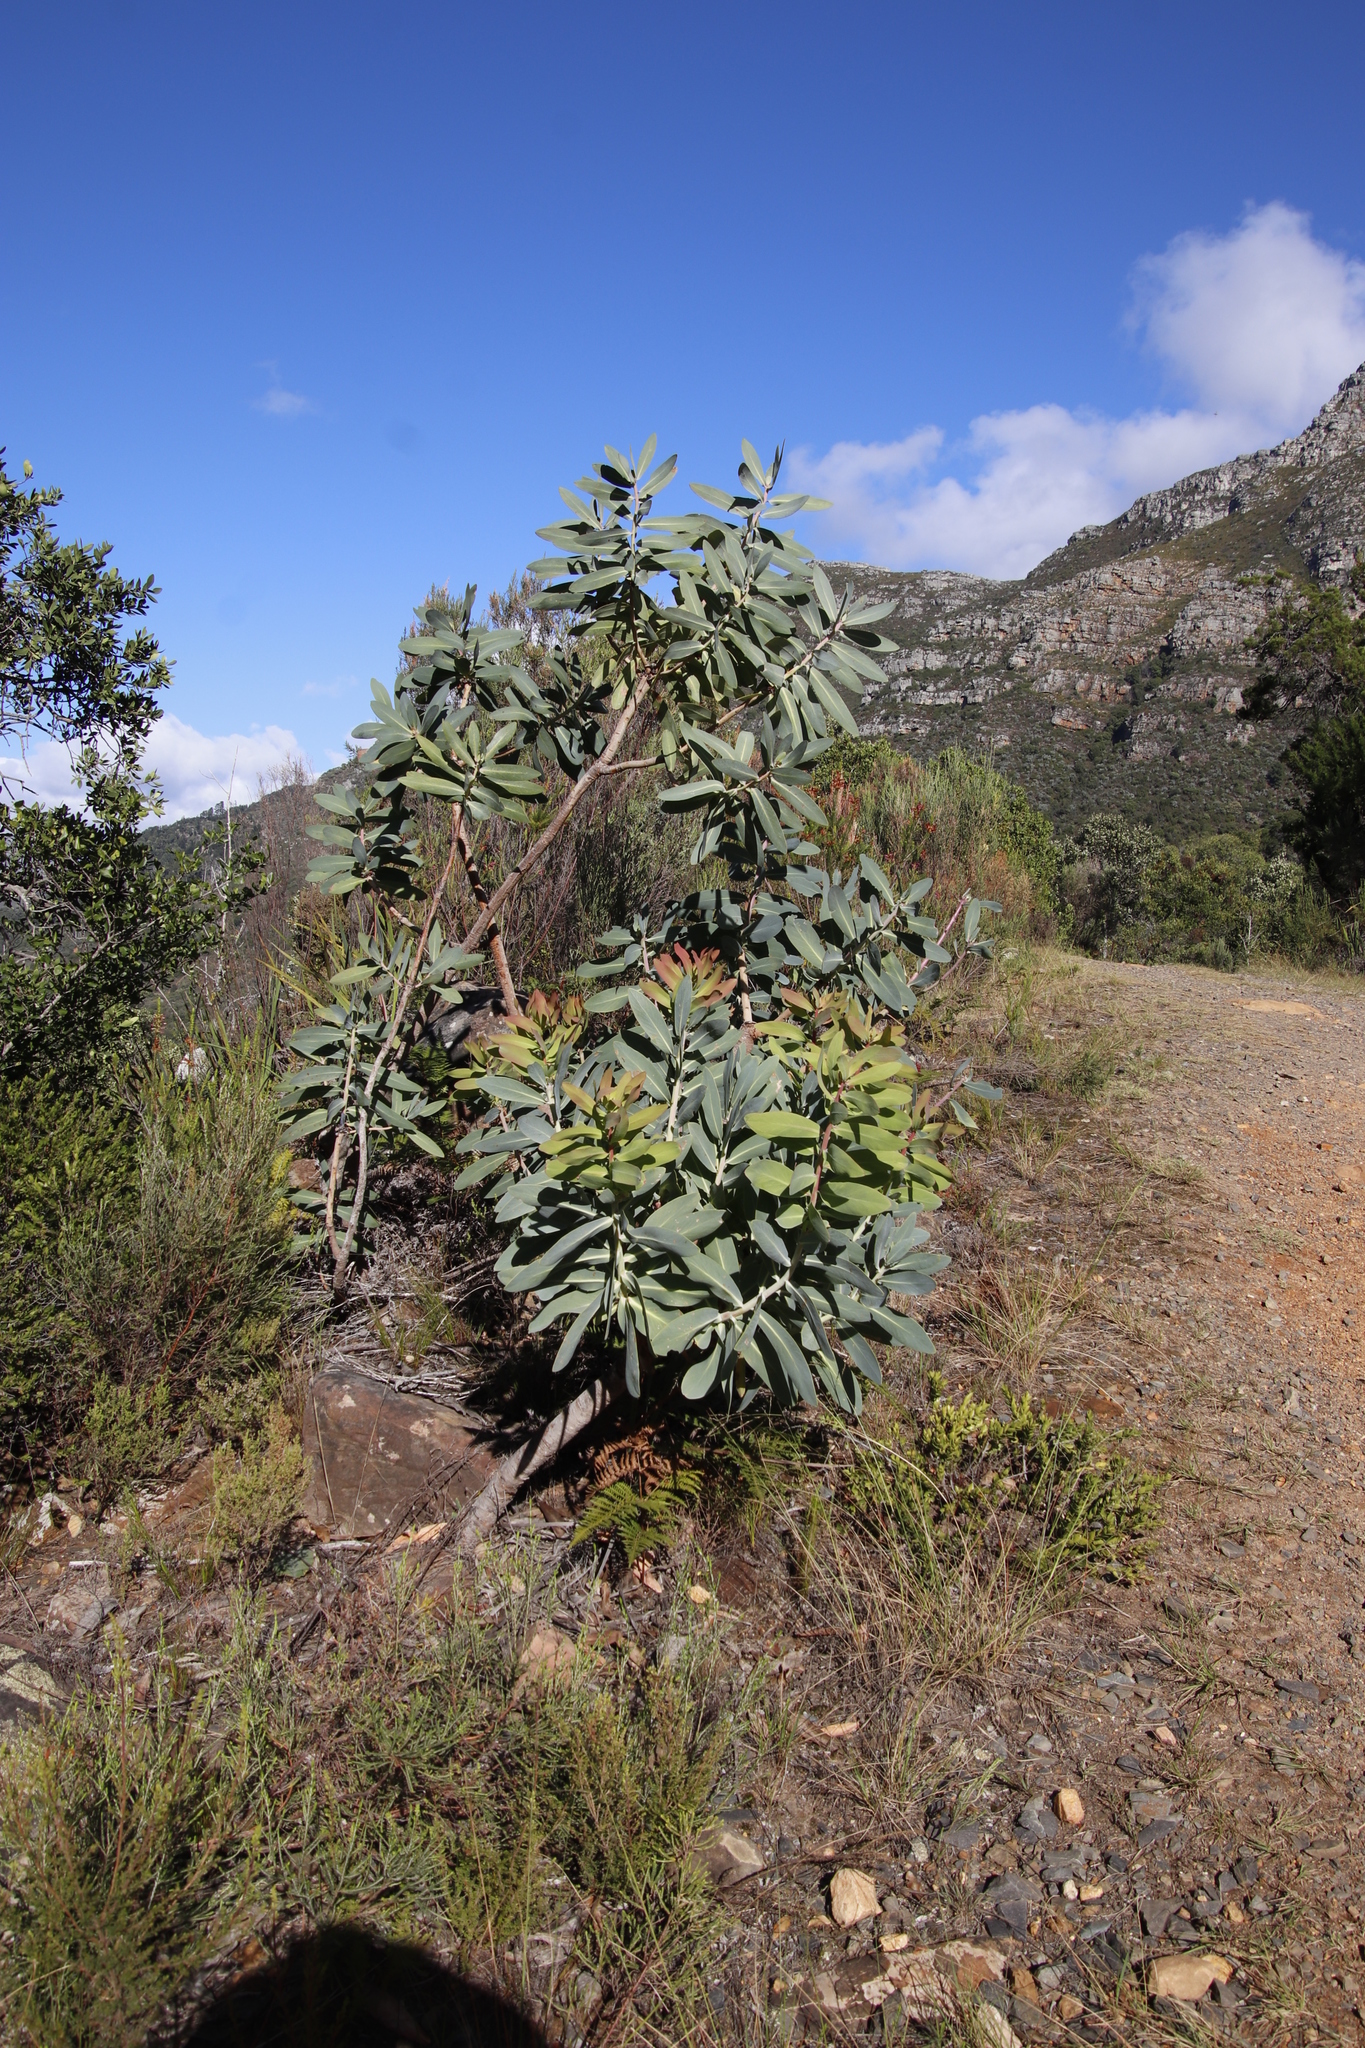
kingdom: Plantae
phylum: Tracheophyta
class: Magnoliopsida
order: Proteales
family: Proteaceae
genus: Protea
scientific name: Protea nitida
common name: Tree protea
